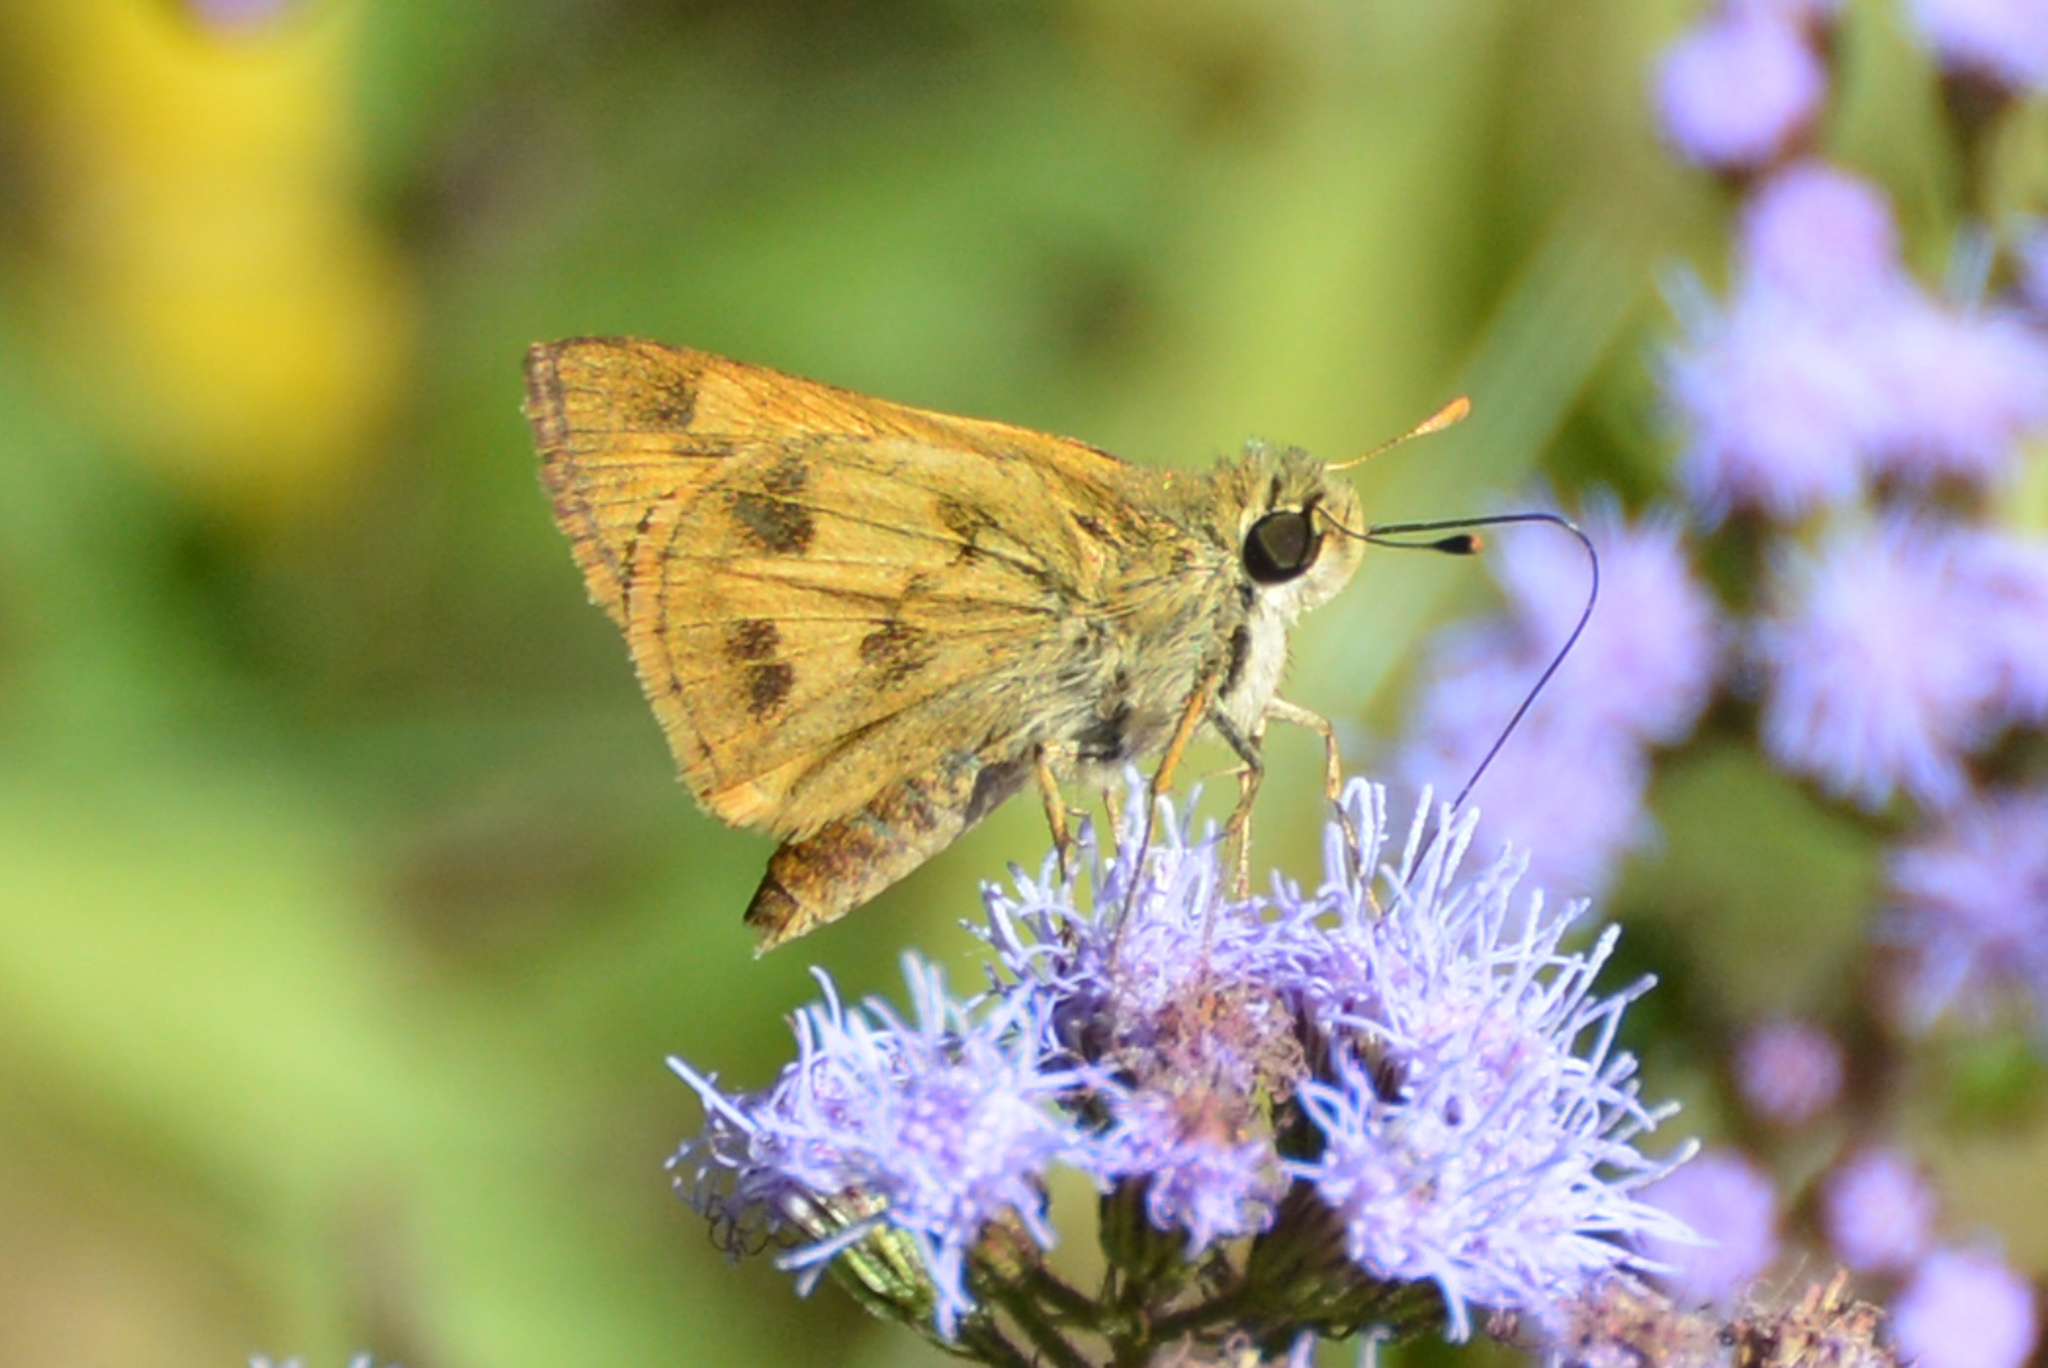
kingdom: Animalia
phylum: Arthropoda
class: Insecta
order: Lepidoptera
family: Hesperiidae
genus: Polites
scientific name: Polites vibex
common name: Whirlabout
